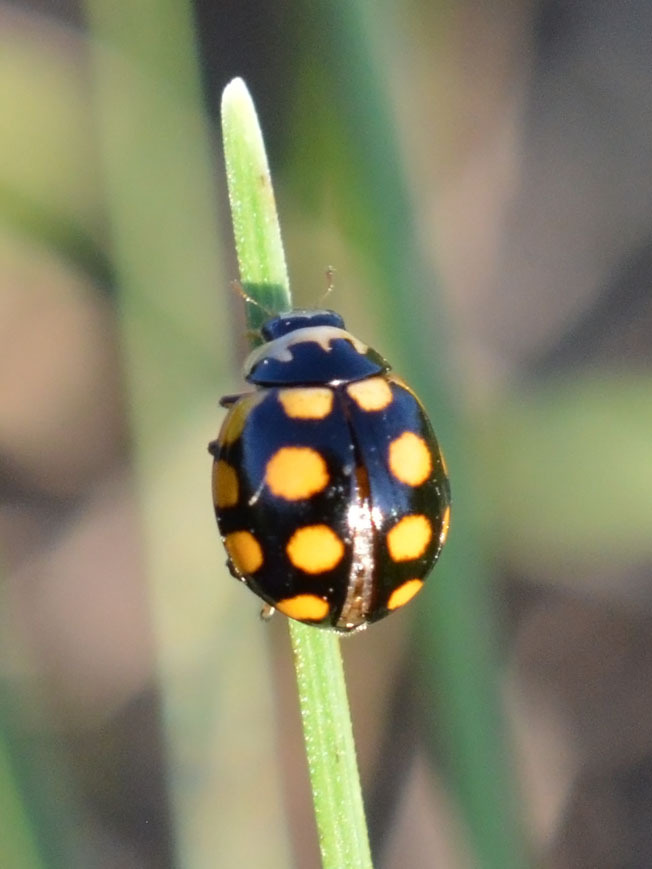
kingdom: Animalia
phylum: Arthropoda
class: Insecta
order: Coleoptera
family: Coccinellidae
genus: Coccinula
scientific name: Coccinula quatuordecimpustulata
